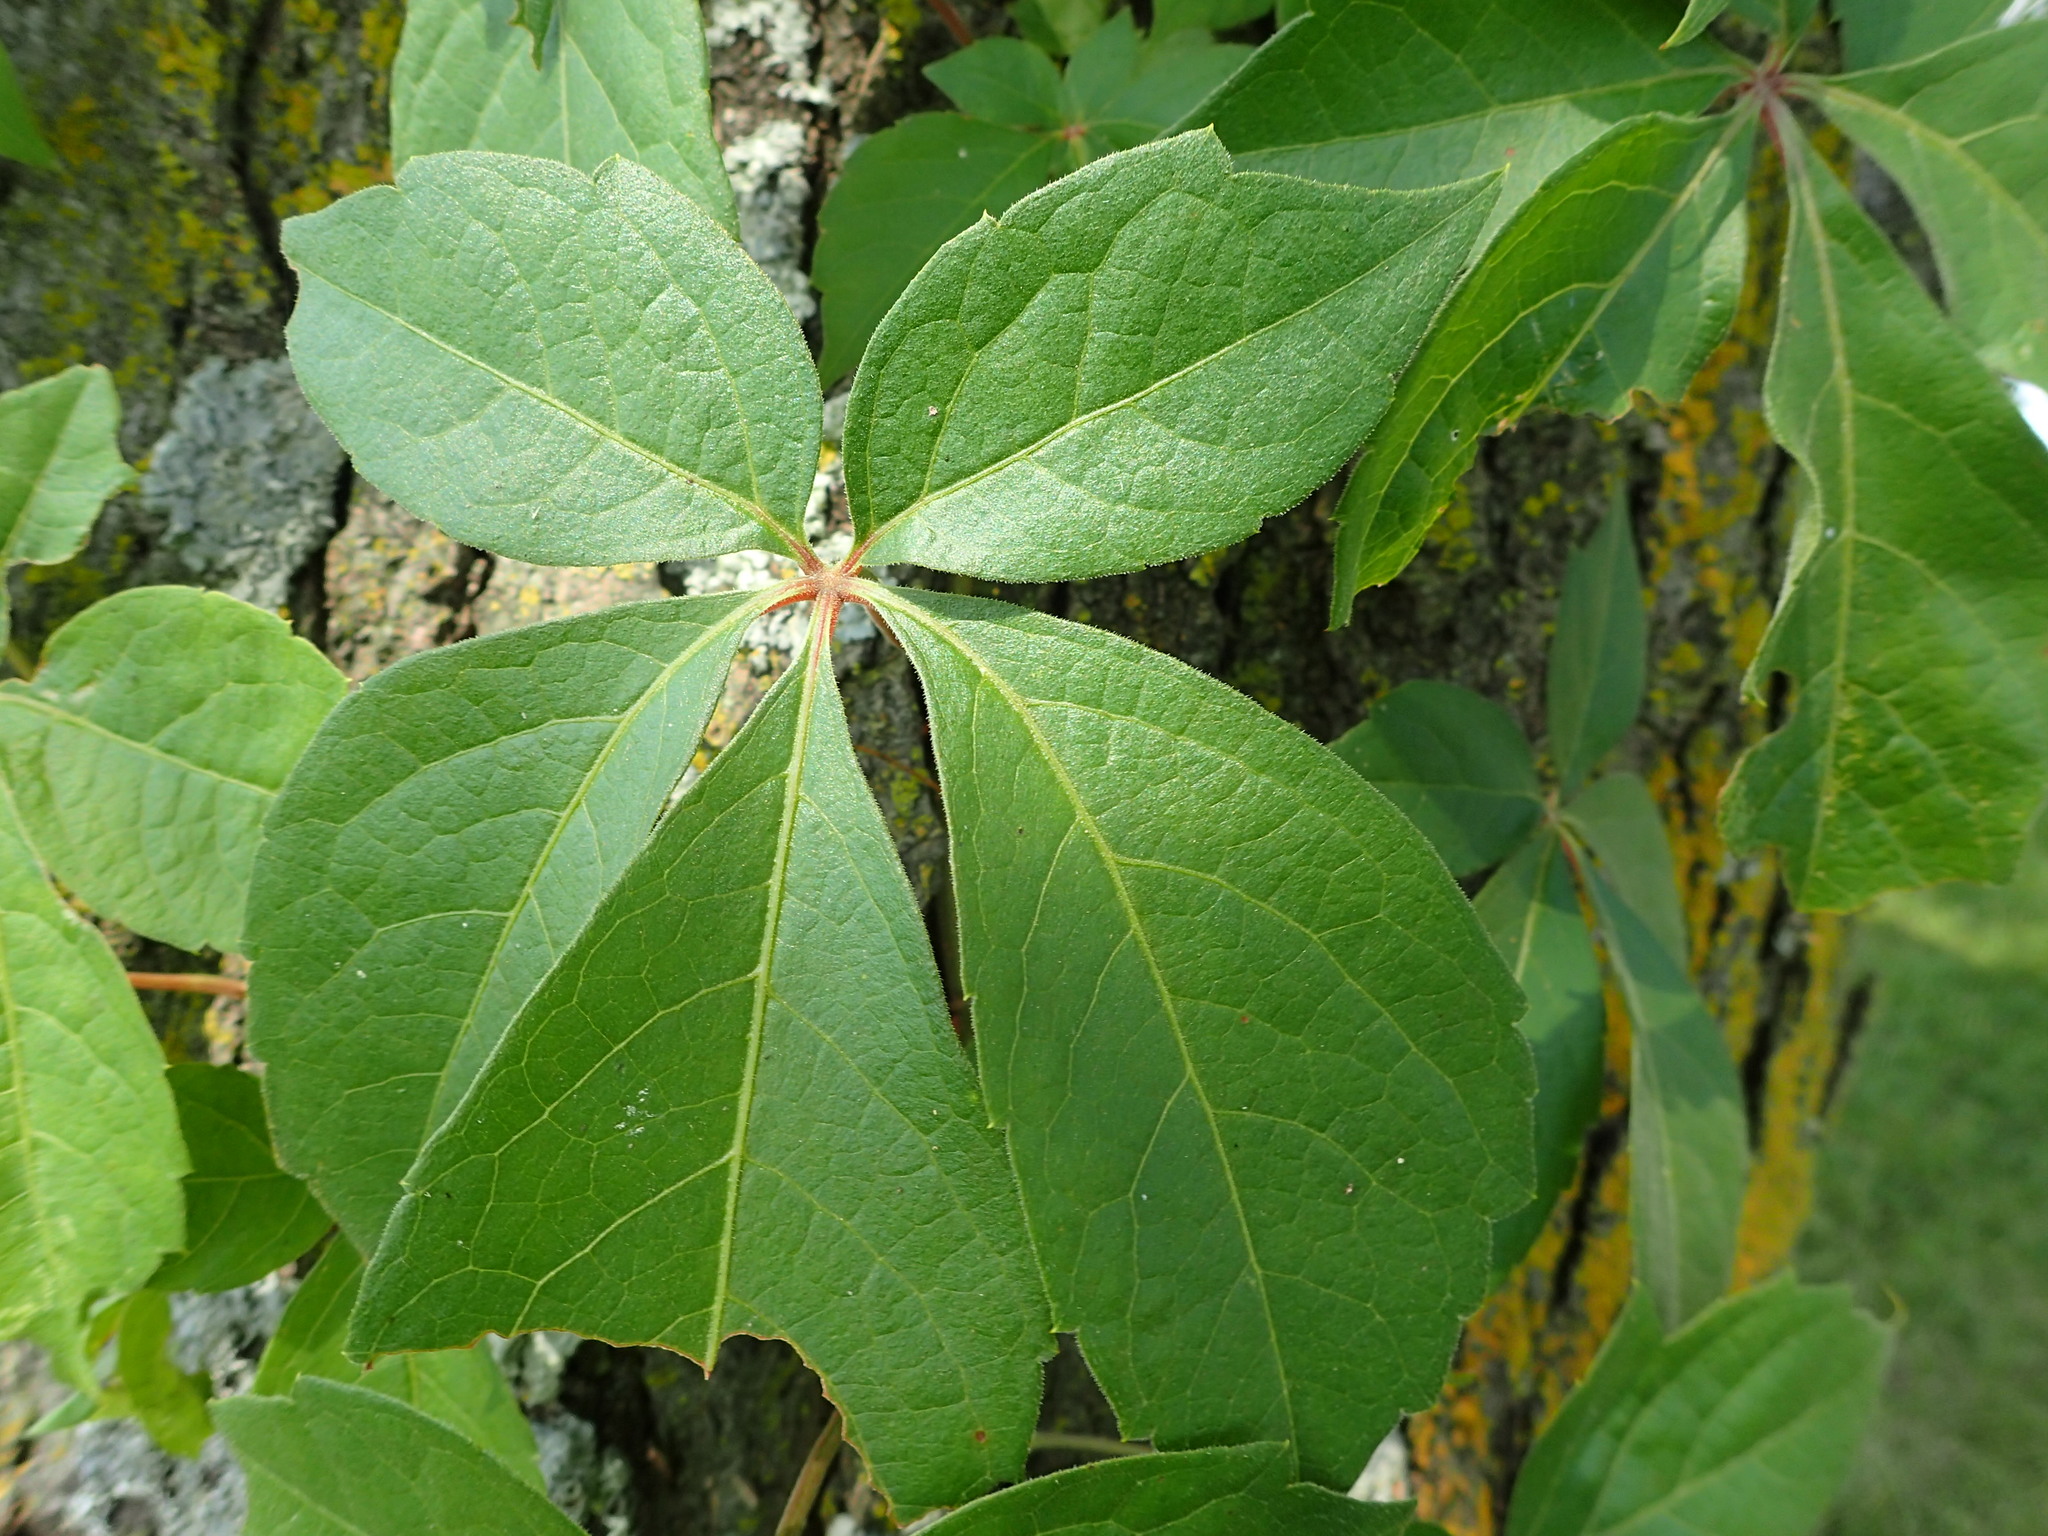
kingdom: Plantae
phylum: Tracheophyta
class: Magnoliopsida
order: Vitales
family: Vitaceae
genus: Parthenocissus
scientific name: Parthenocissus quinquefolia
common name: Virginia-creeper
